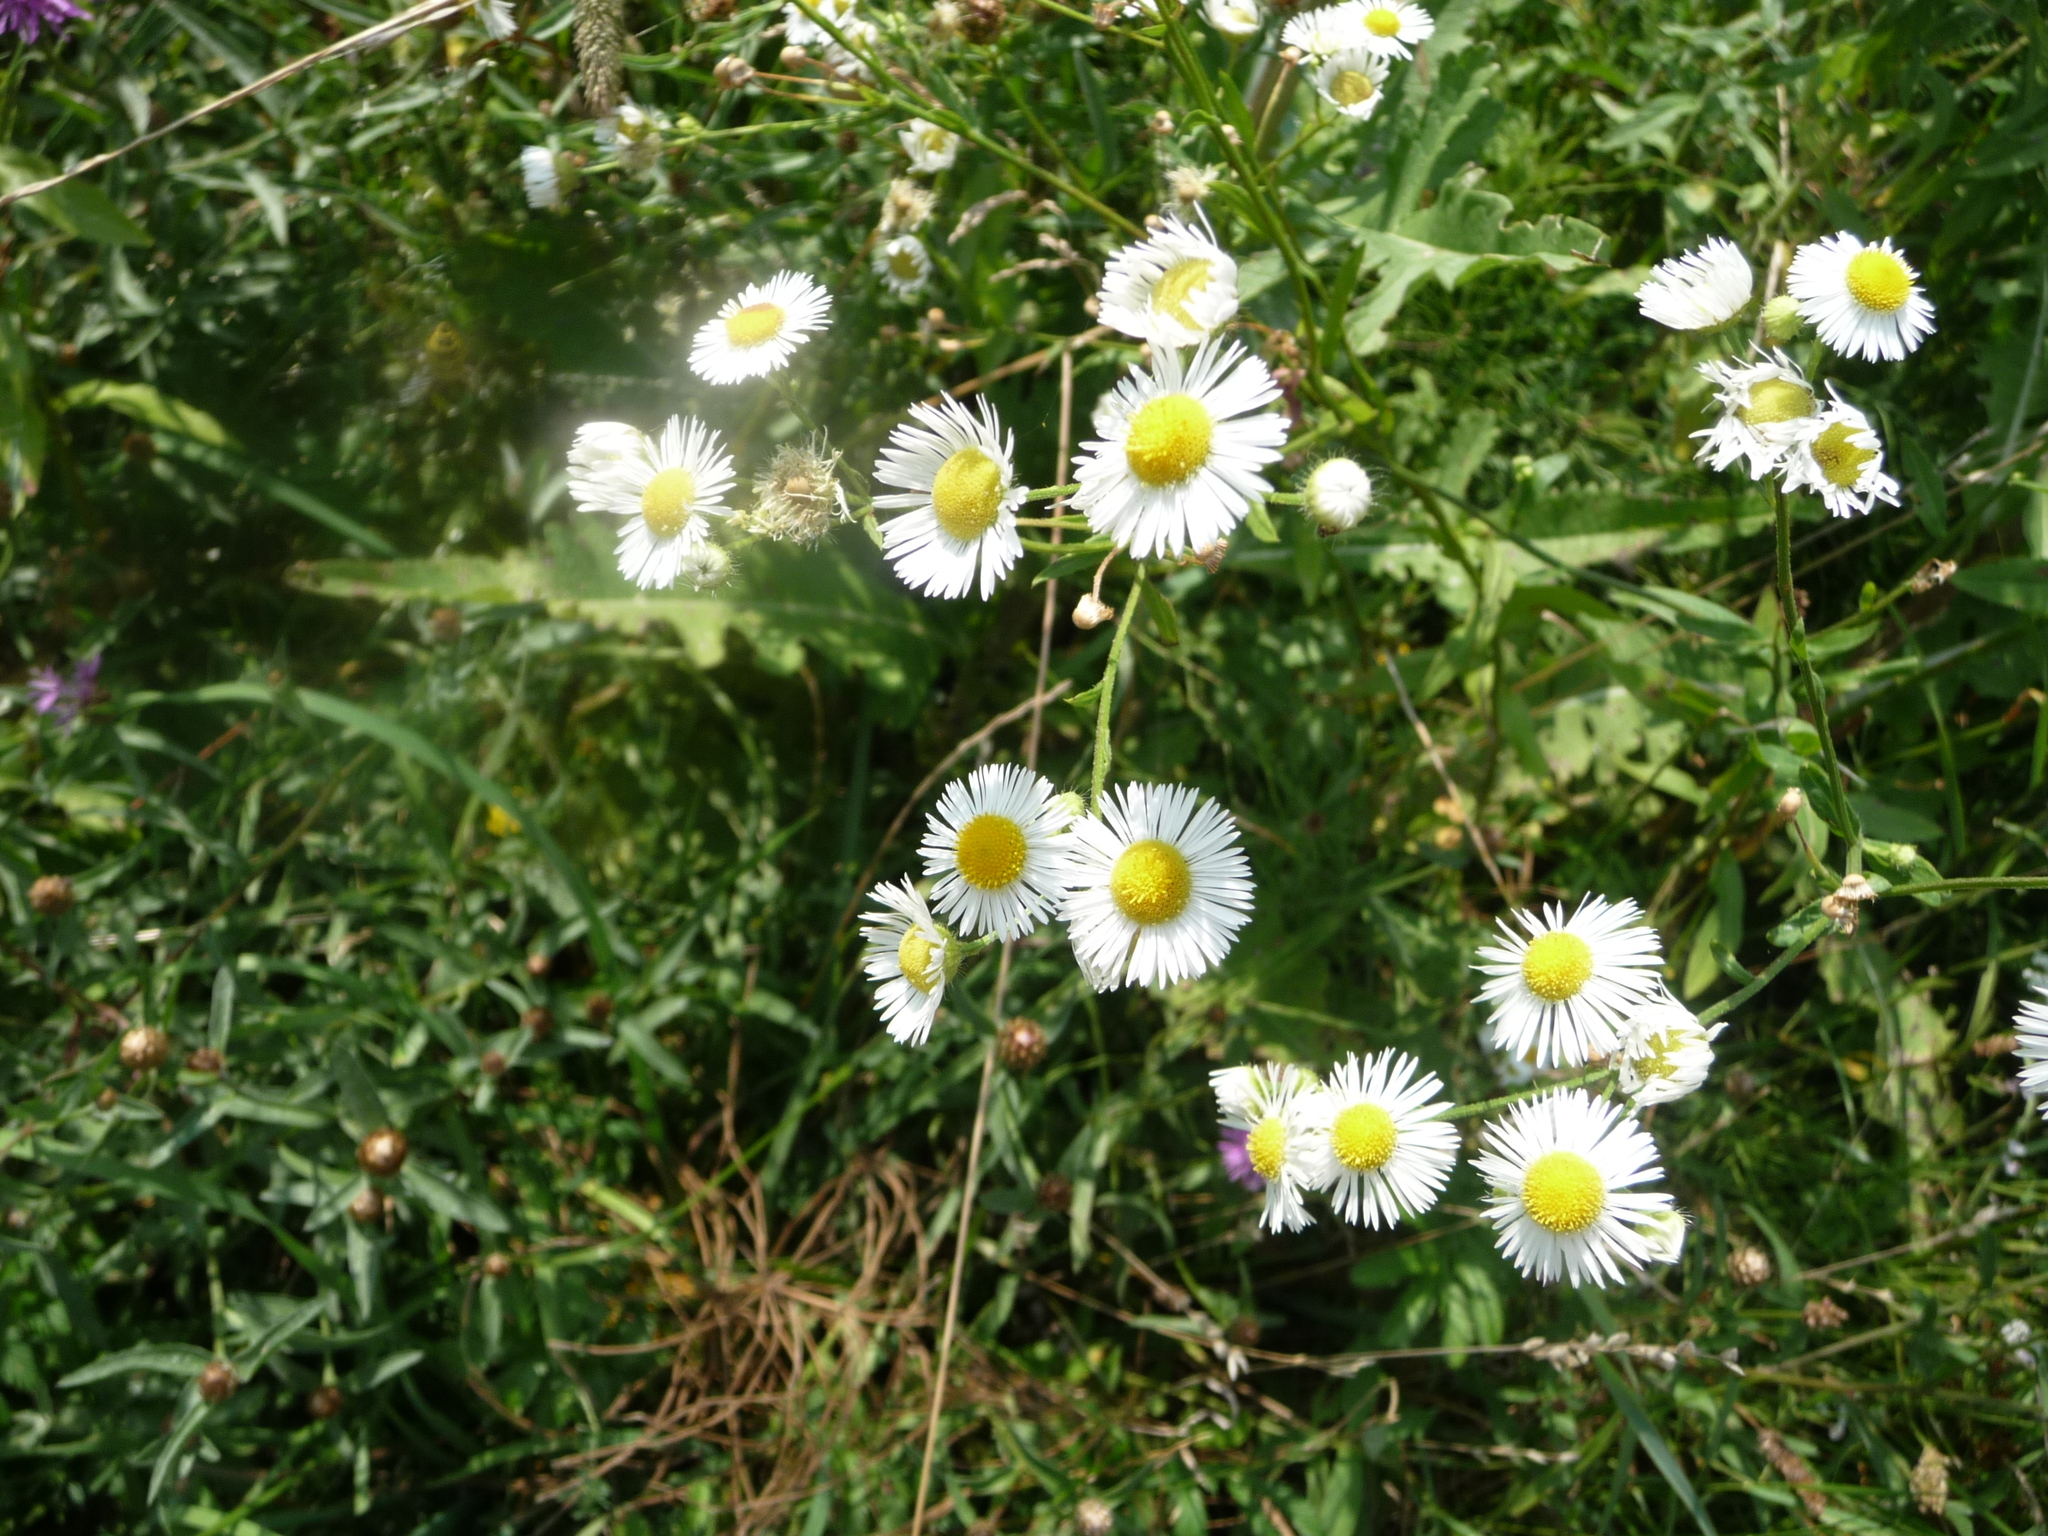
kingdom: Plantae
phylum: Tracheophyta
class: Magnoliopsida
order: Asterales
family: Asteraceae
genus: Erigeron
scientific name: Erigeron annuus
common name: Tall fleabane
